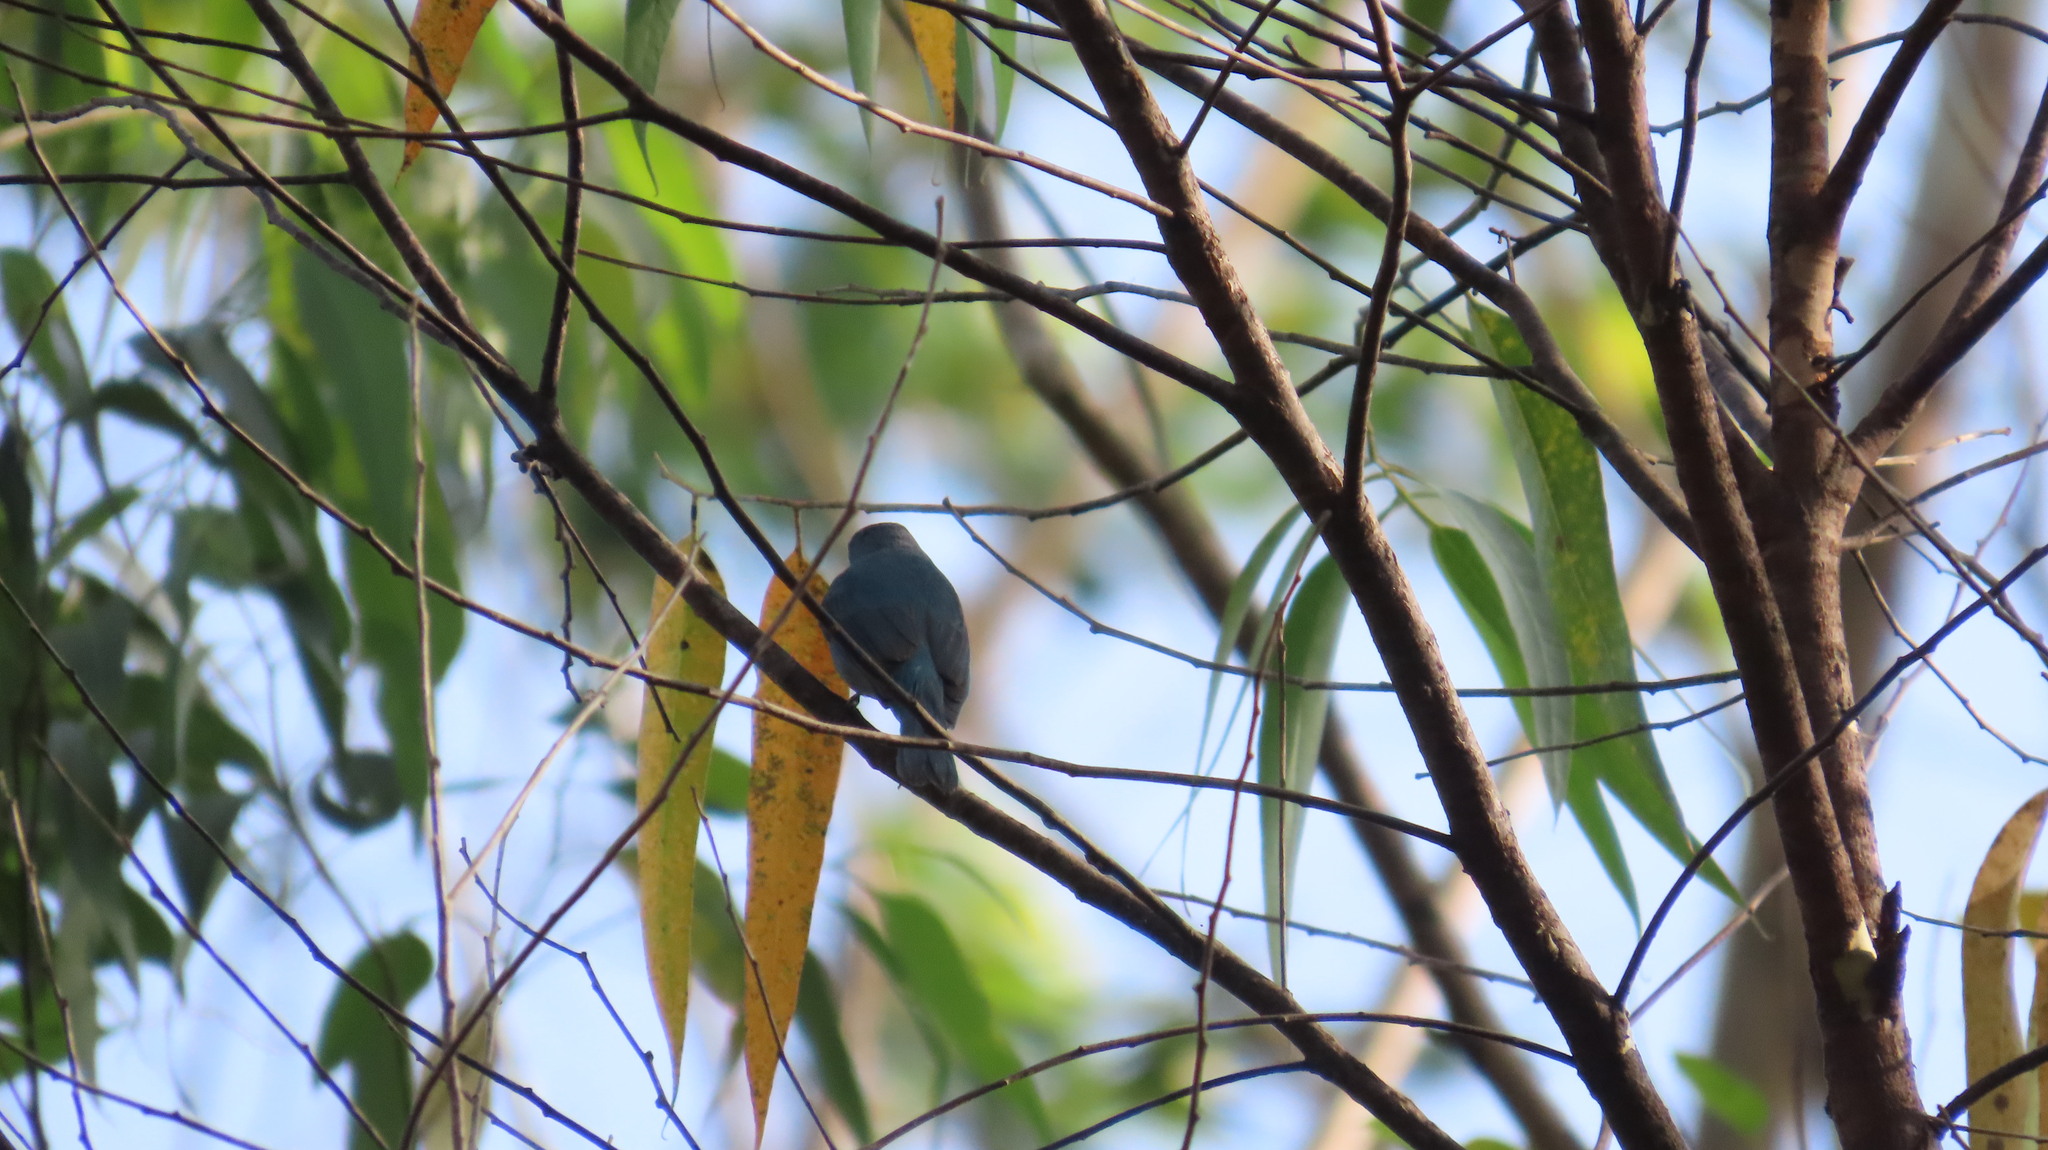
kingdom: Animalia
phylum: Chordata
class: Aves
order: Passeriformes
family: Muscicapidae
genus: Eumyias
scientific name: Eumyias thalassinus
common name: Verditer flycatcher
